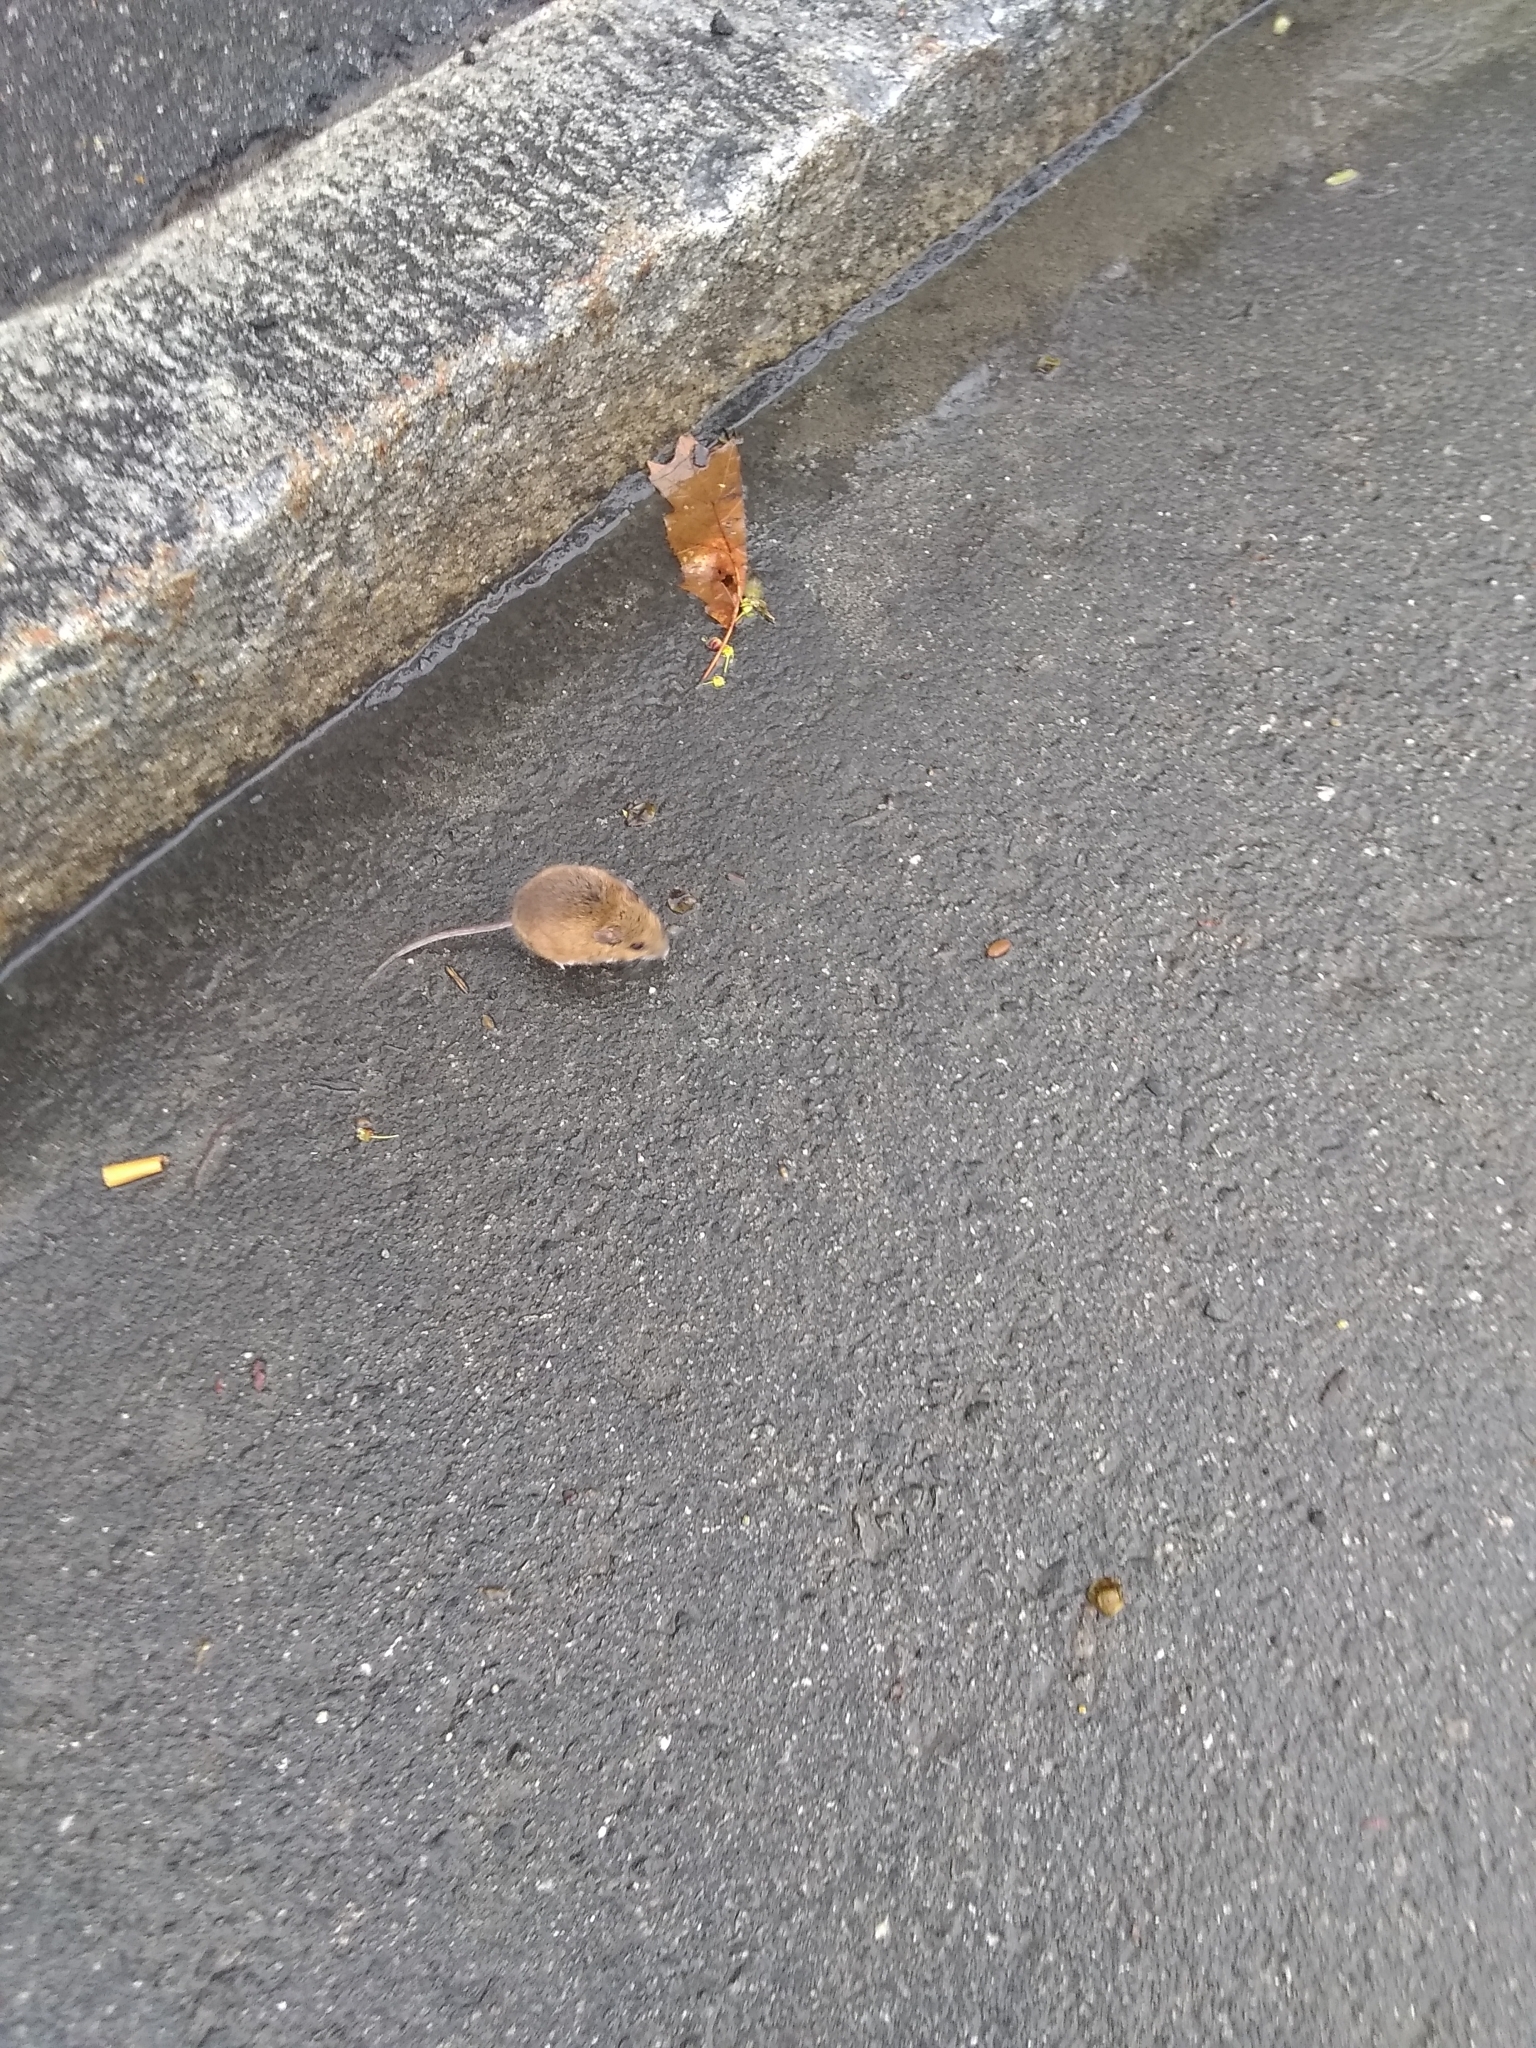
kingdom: Animalia
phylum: Chordata
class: Mammalia
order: Rodentia
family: Cricetidae
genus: Peromyscus
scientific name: Peromyscus leucopus
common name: White-footed deermouse
